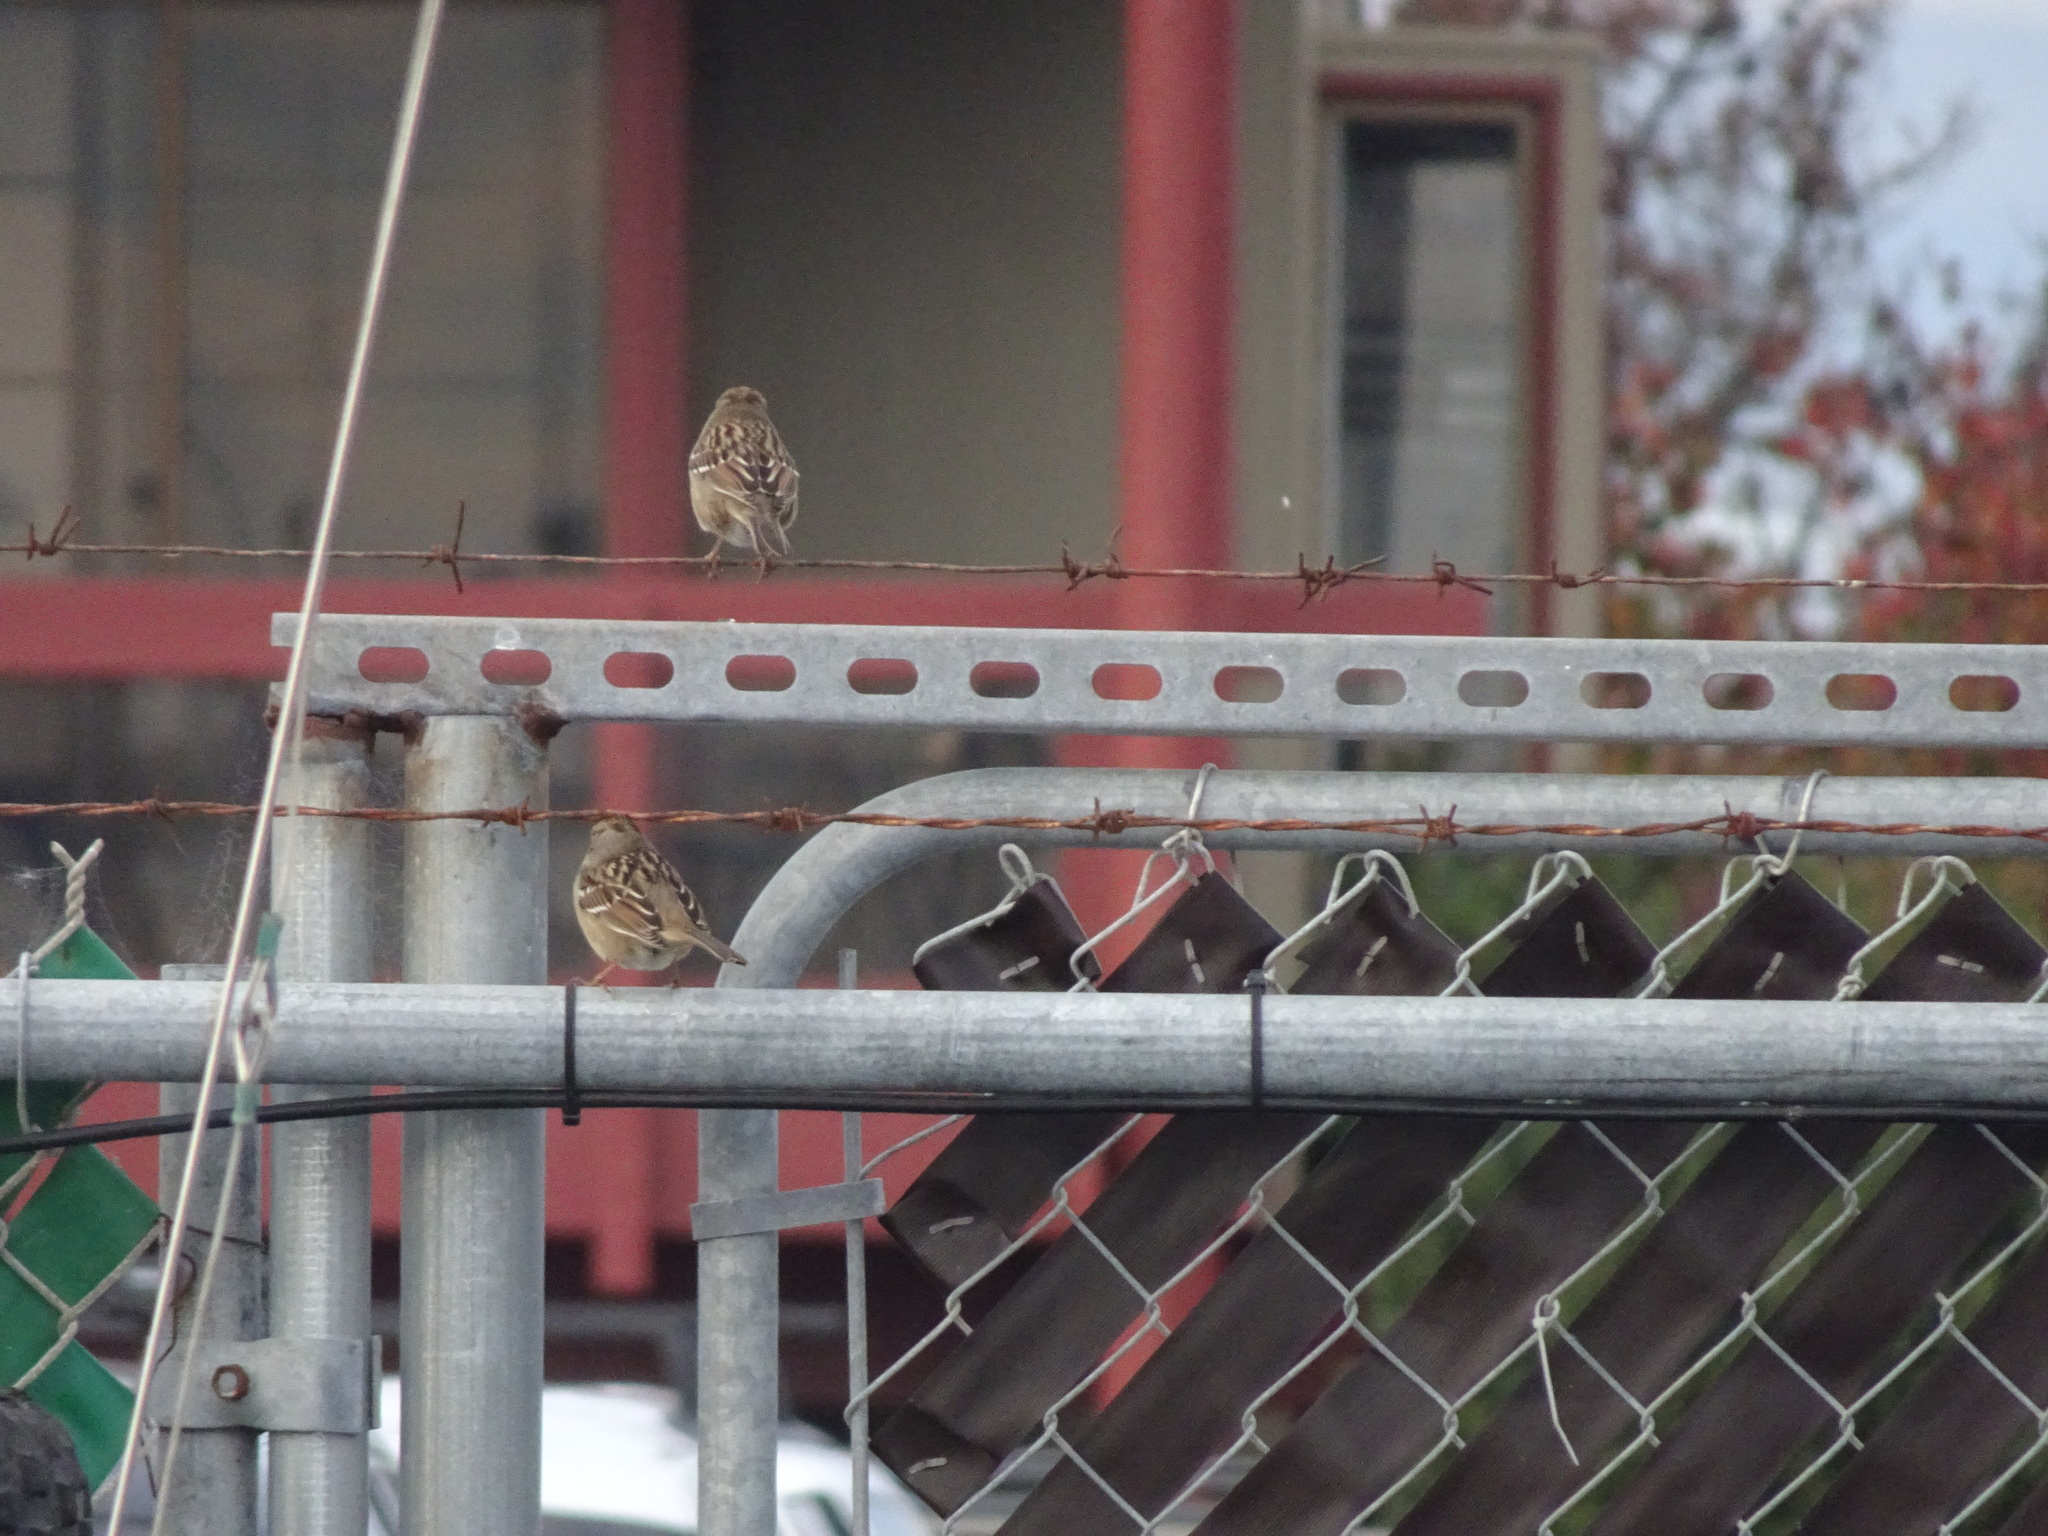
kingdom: Animalia
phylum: Chordata
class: Aves
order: Passeriformes
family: Passerellidae
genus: Zonotrichia
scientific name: Zonotrichia leucophrys
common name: White-crowned sparrow
